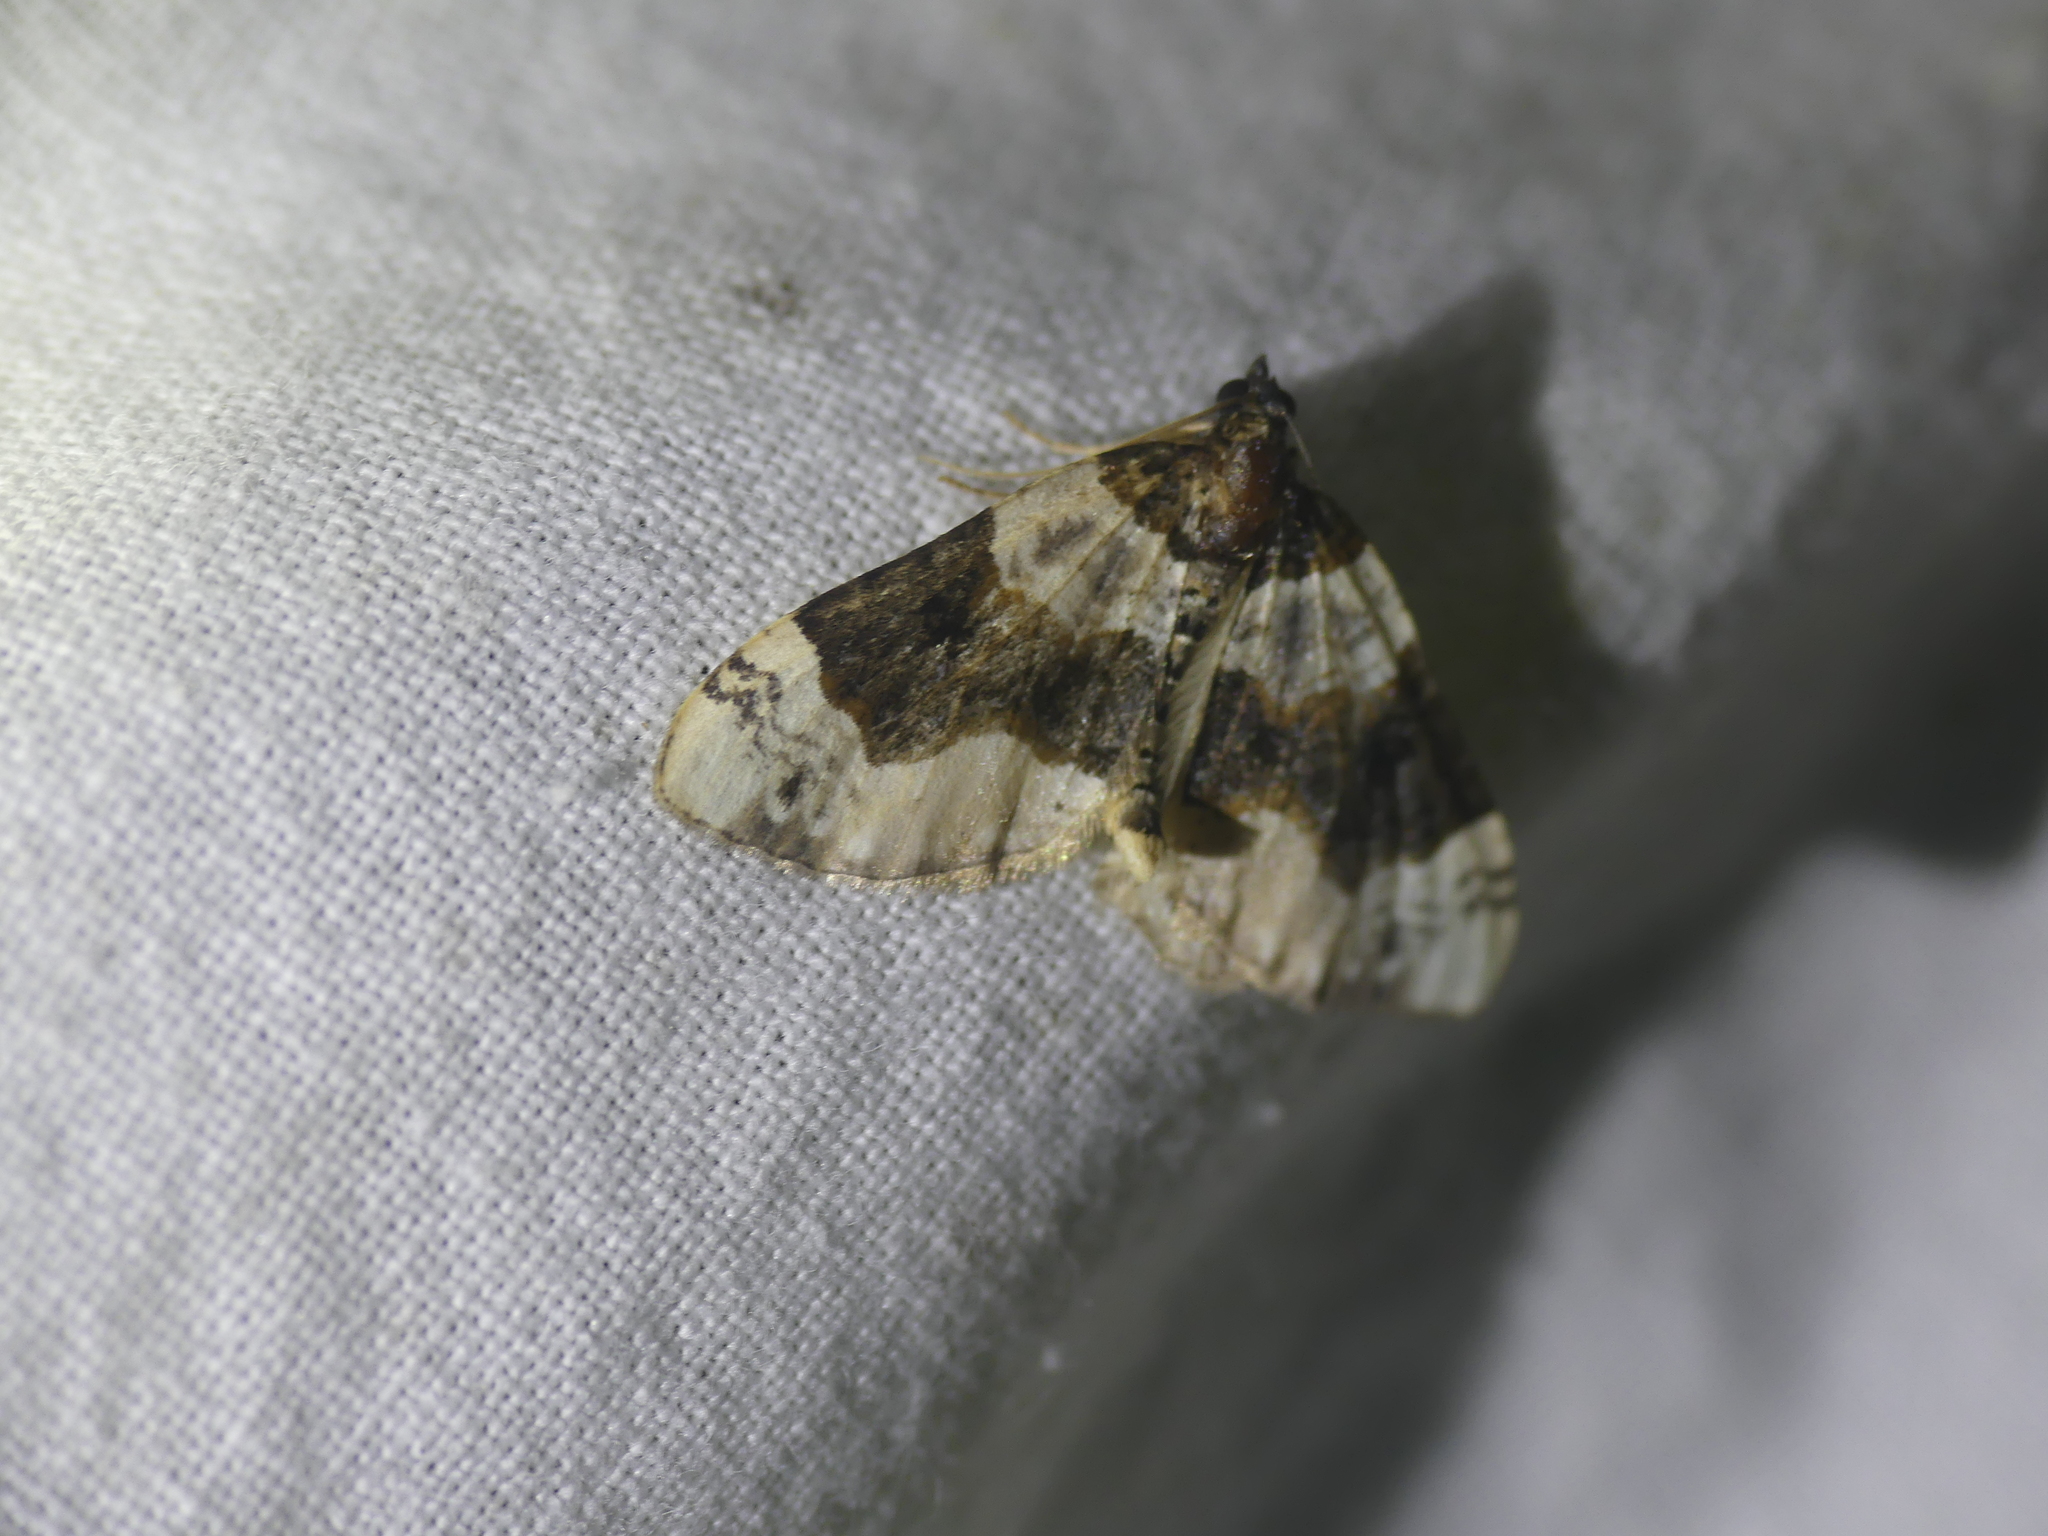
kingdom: Animalia
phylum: Arthropoda
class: Insecta
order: Lepidoptera
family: Geometridae
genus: Cosmorhoe
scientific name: Cosmorhoe ocellata
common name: Purple bar
